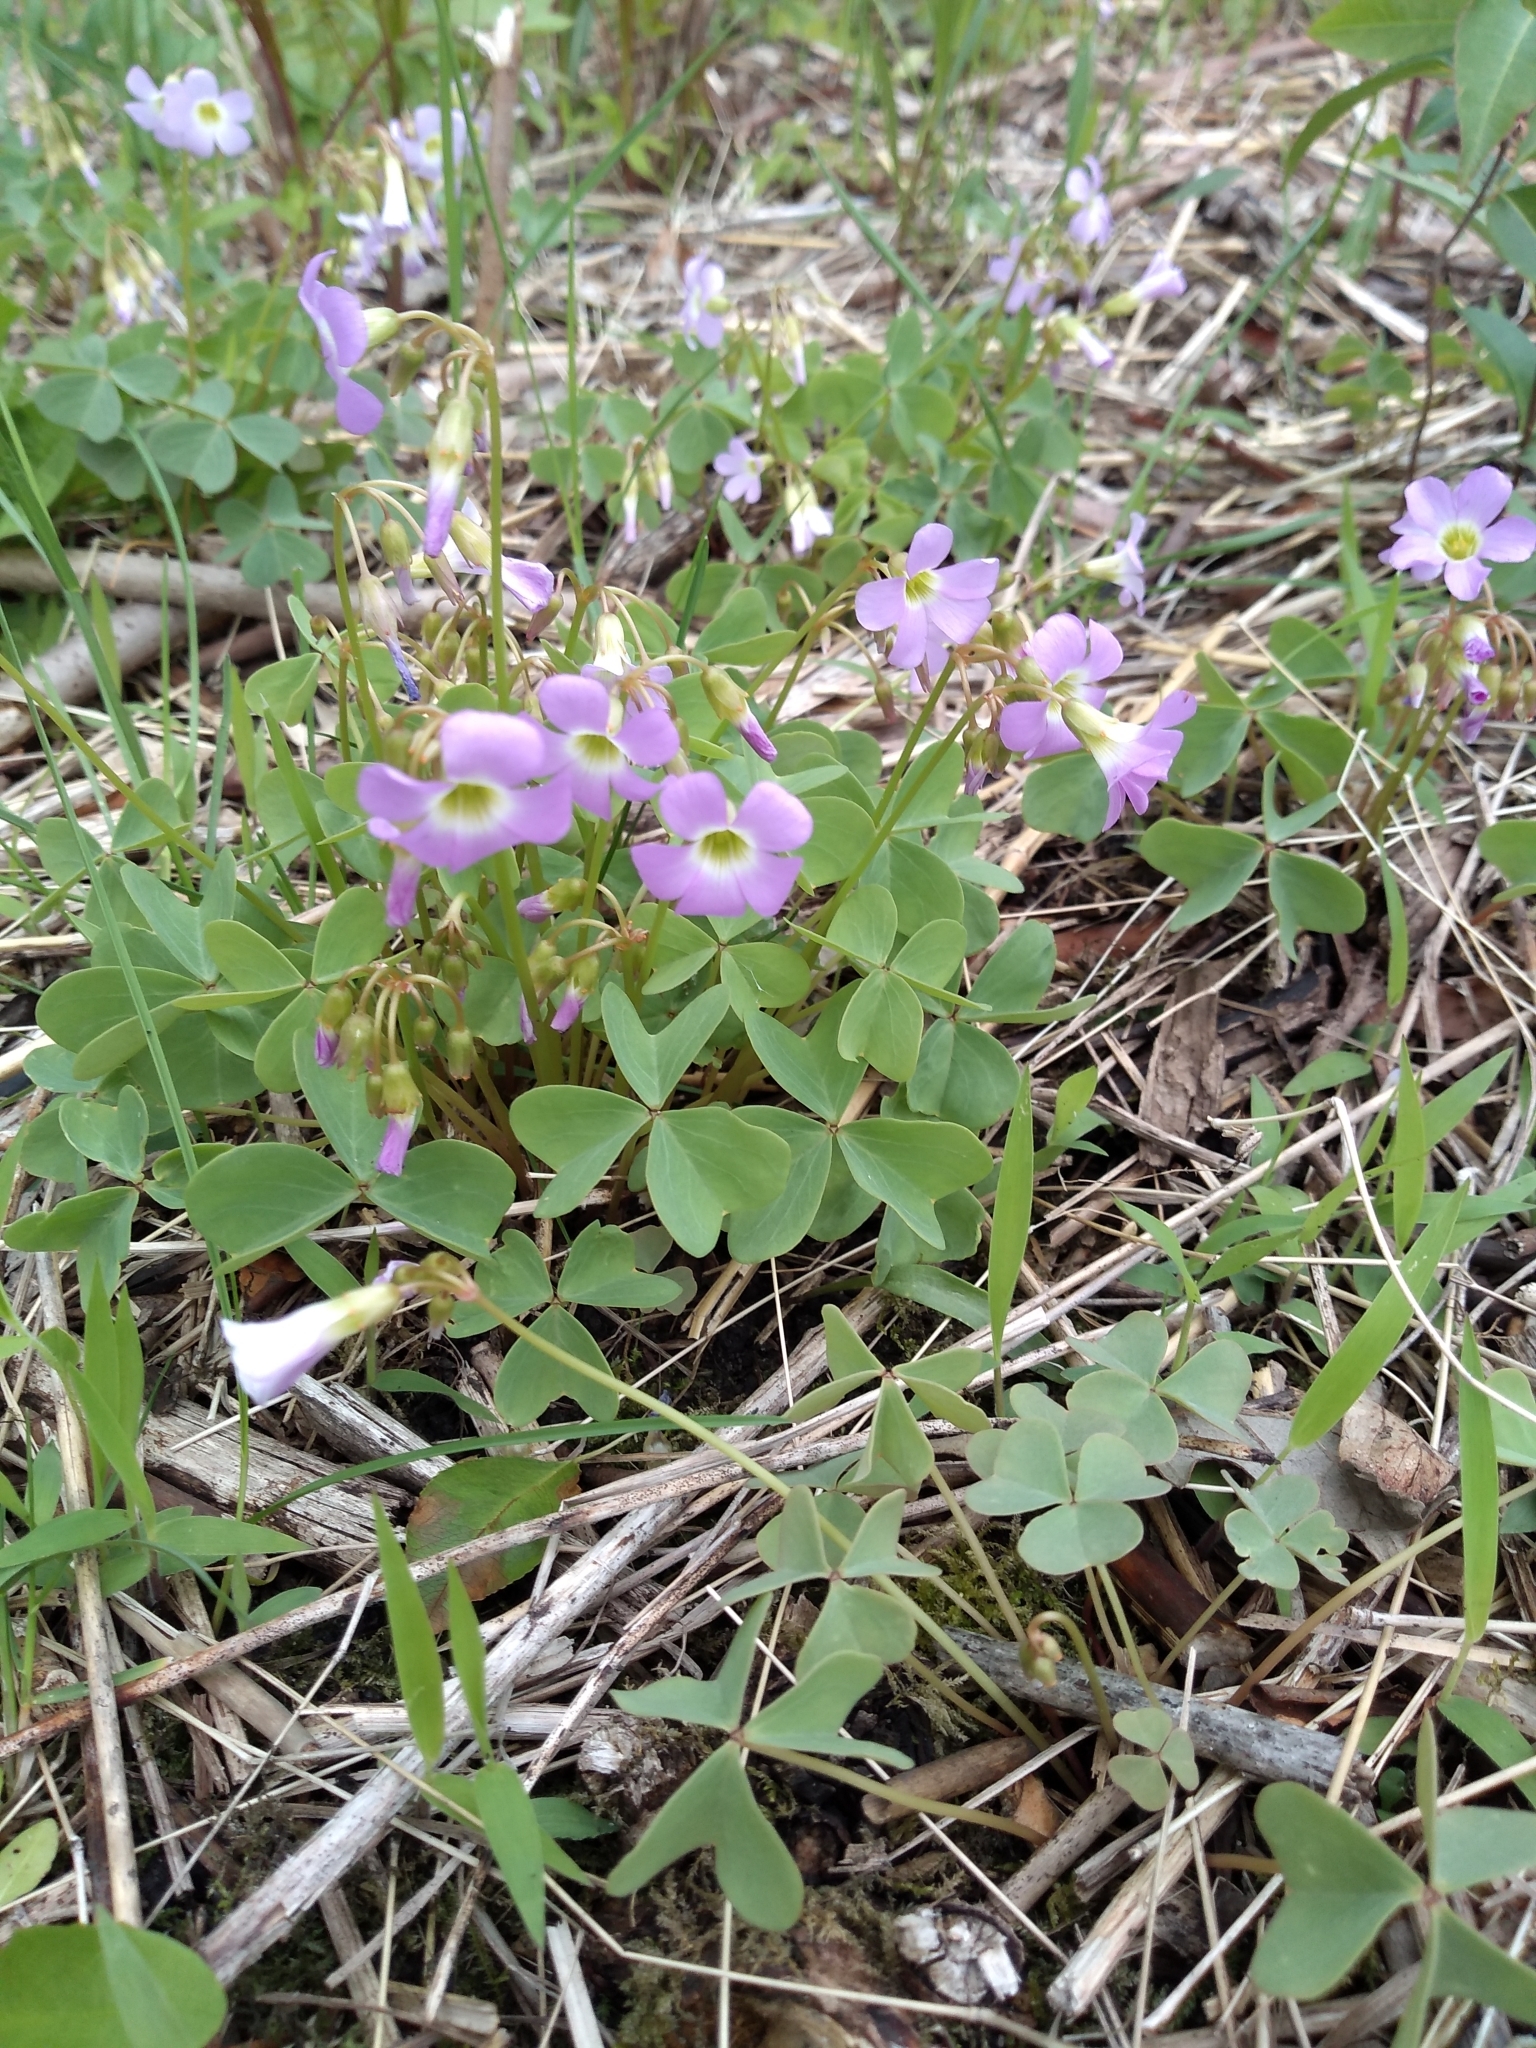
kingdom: Plantae
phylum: Tracheophyta
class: Magnoliopsida
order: Oxalidales
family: Oxalidaceae
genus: Oxalis
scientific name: Oxalis violacea
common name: Violet wood-sorrel
